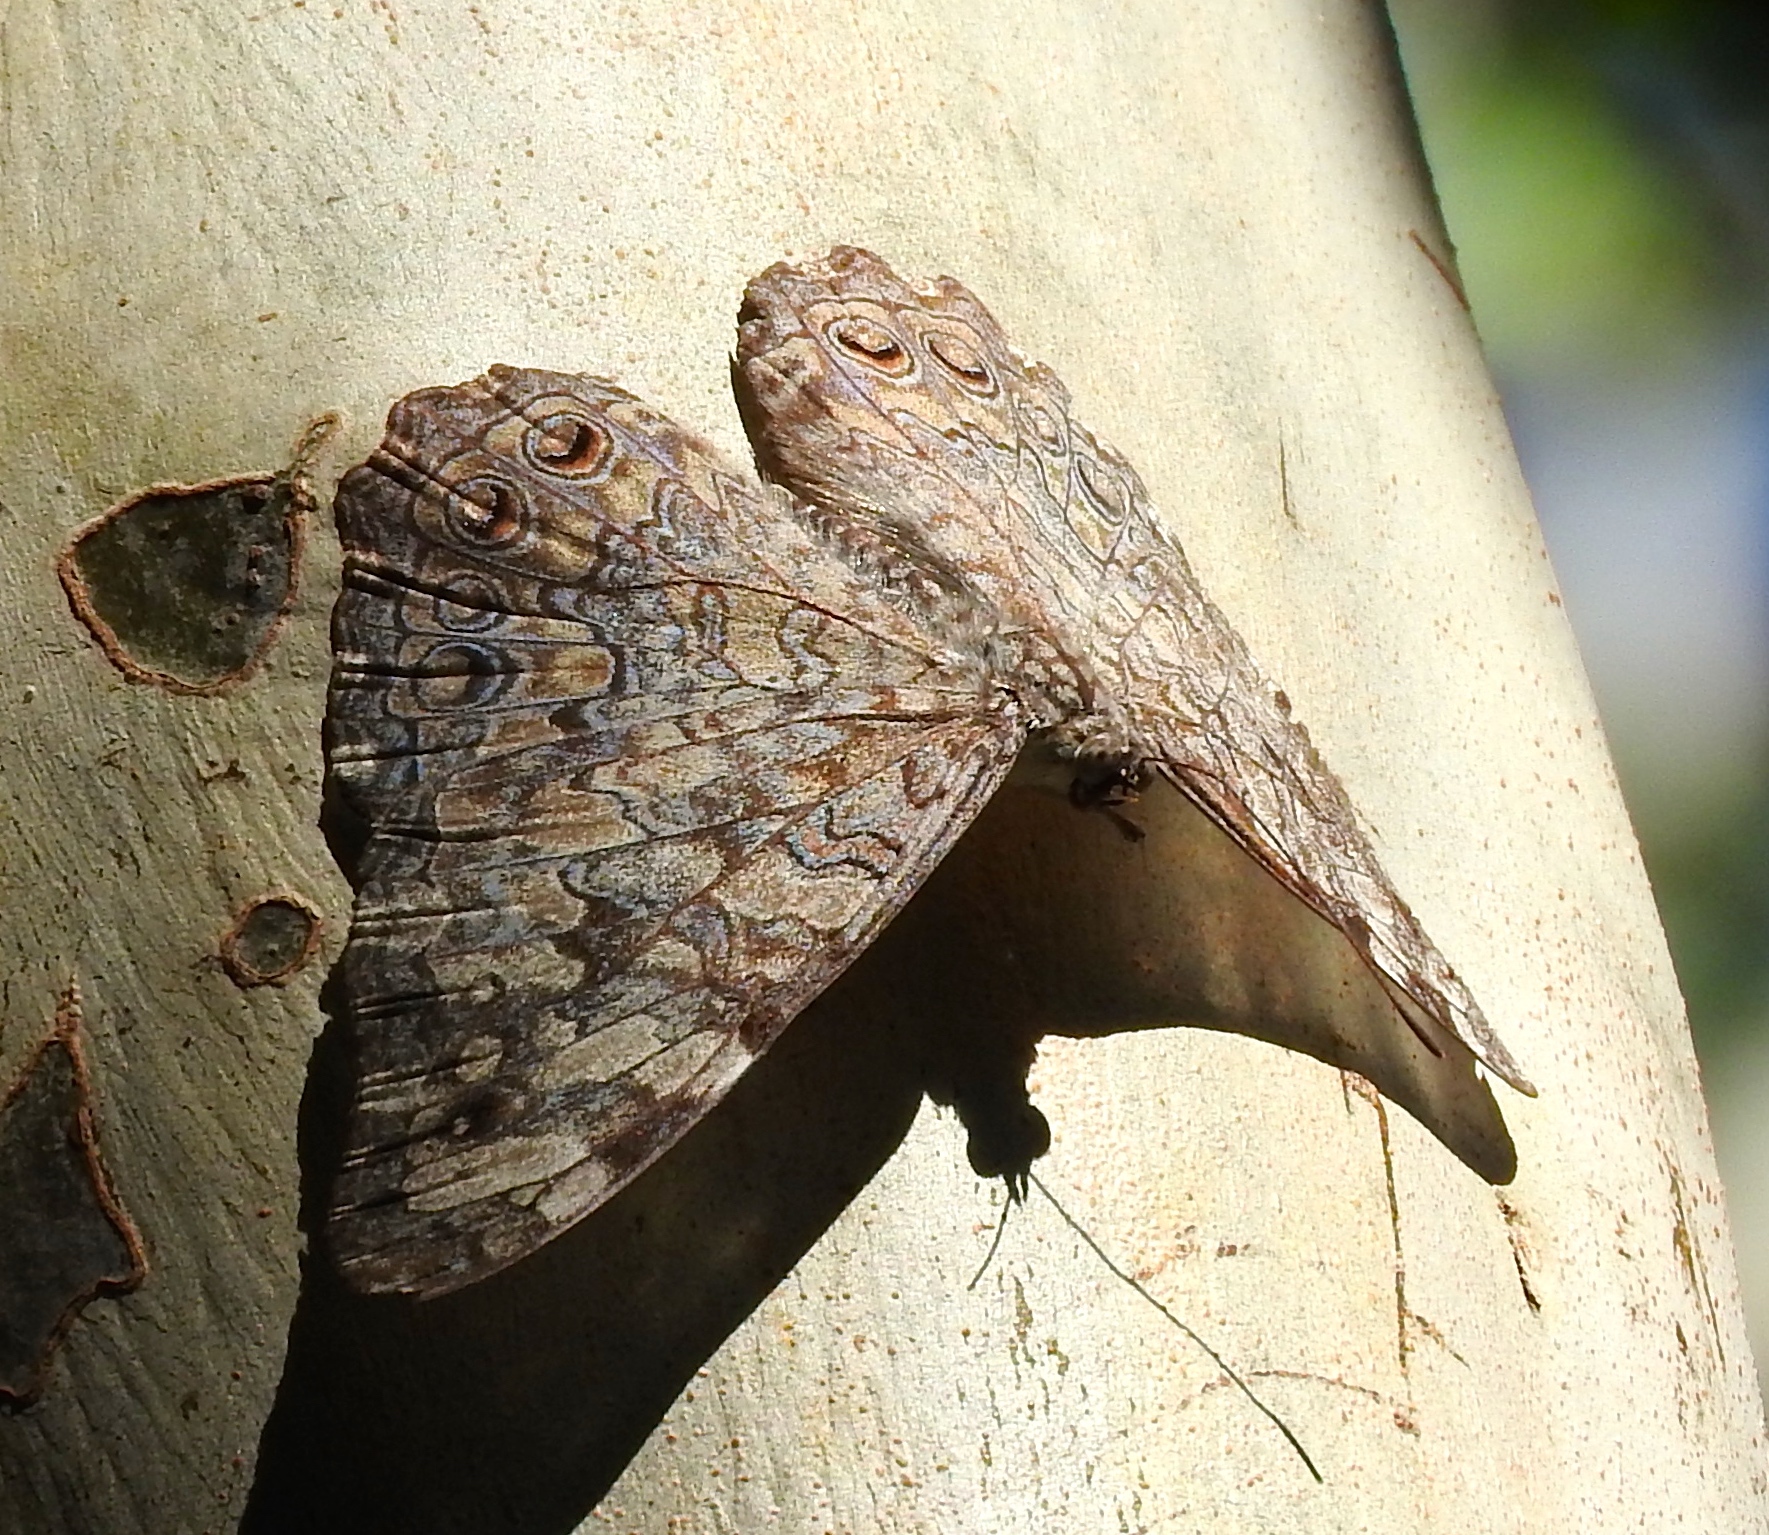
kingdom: Animalia
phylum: Arthropoda
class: Insecta
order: Lepidoptera
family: Nymphalidae
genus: Hamadryas
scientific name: Hamadryas februa
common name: Gray cracker
